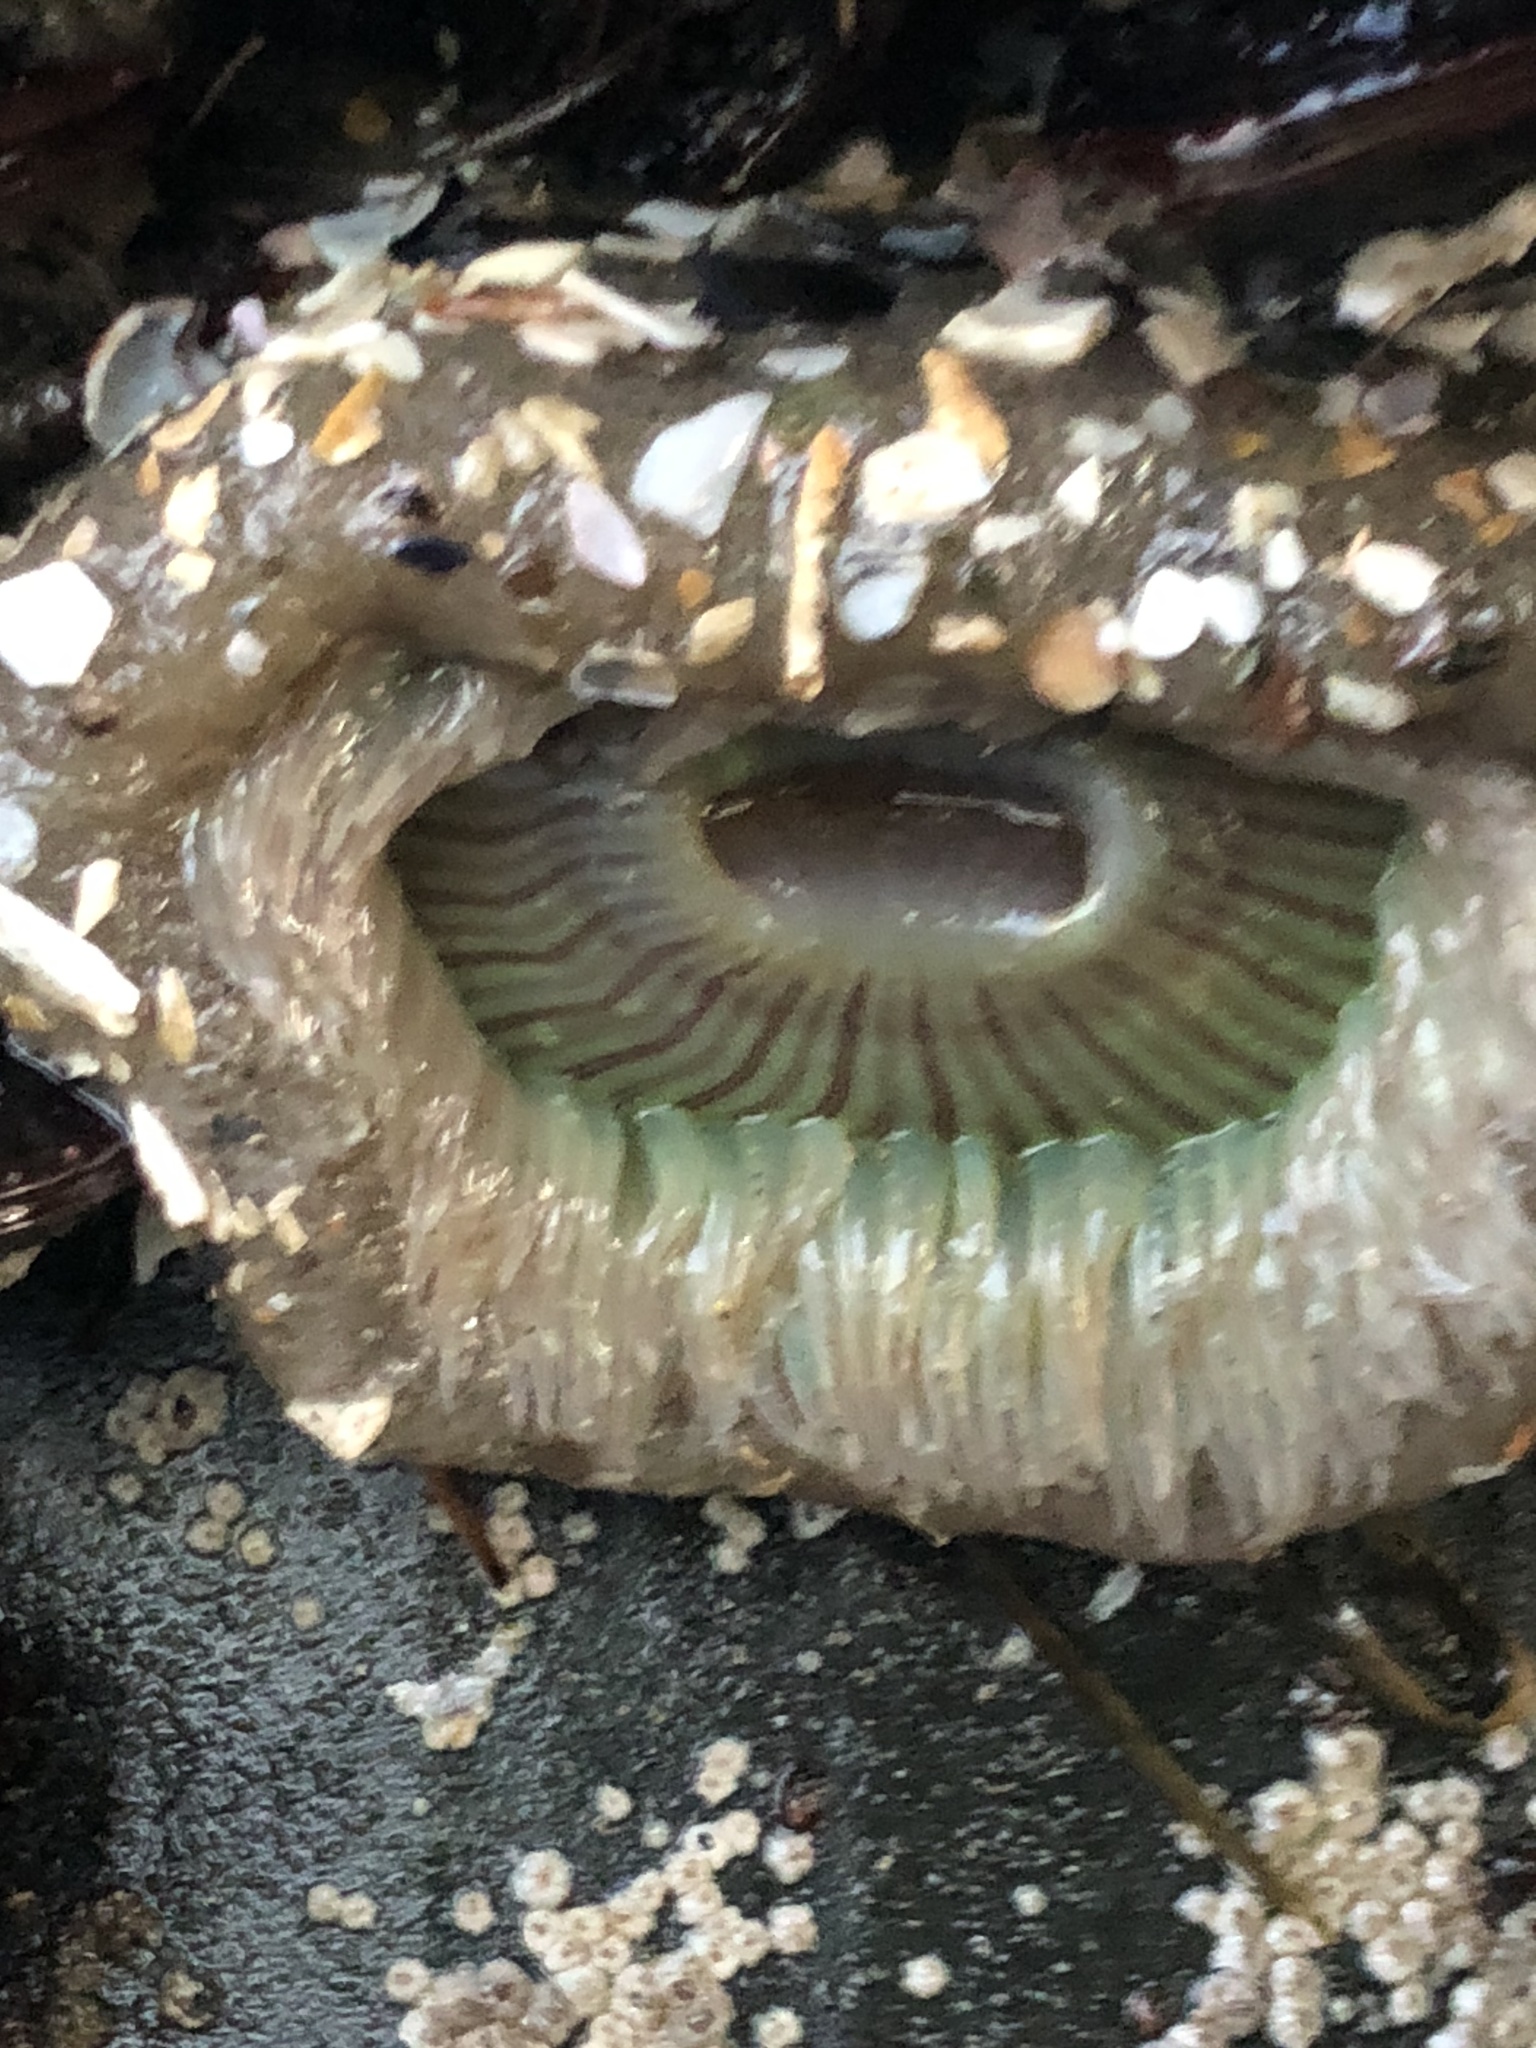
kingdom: Animalia
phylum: Cnidaria
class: Anthozoa
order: Actiniaria
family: Actiniidae
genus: Anthopleura
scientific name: Anthopleura sola
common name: Sun anemone
